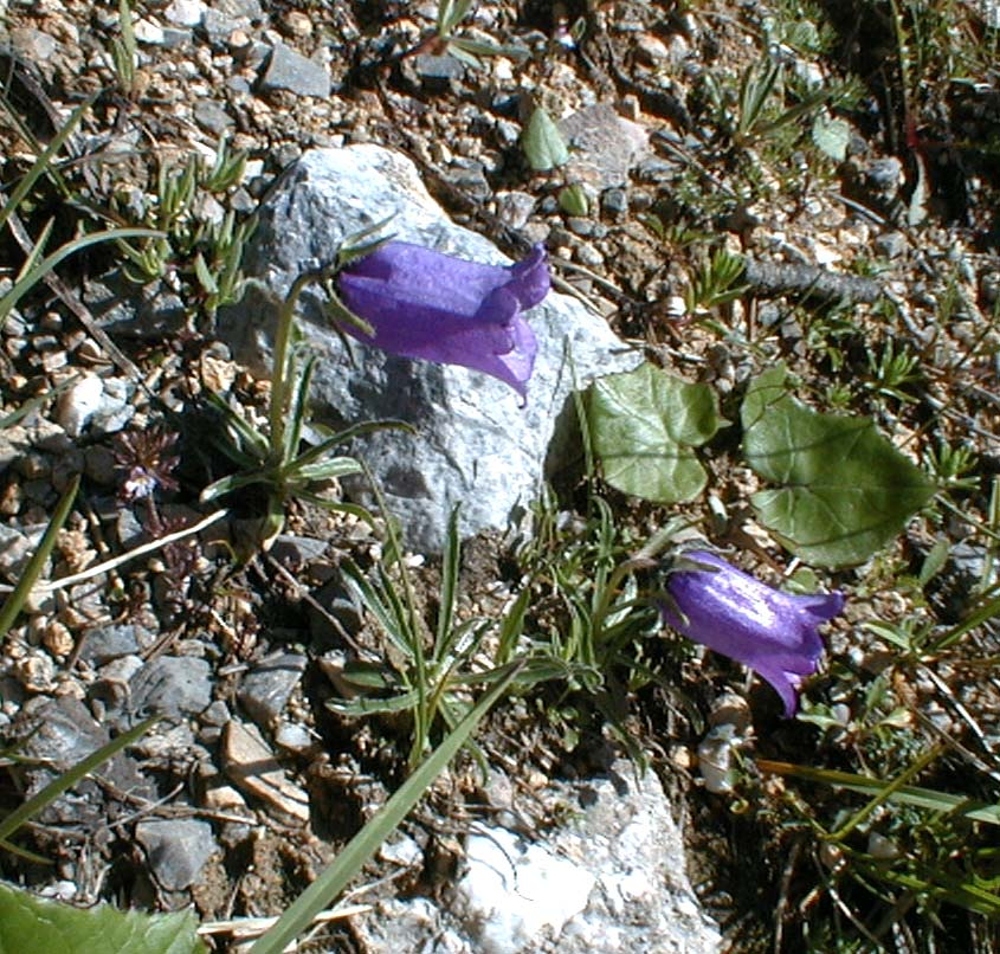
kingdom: Plantae
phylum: Tracheophyta
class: Magnoliopsida
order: Asterales
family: Campanulaceae
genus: Campanula
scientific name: Campanula alpestris
